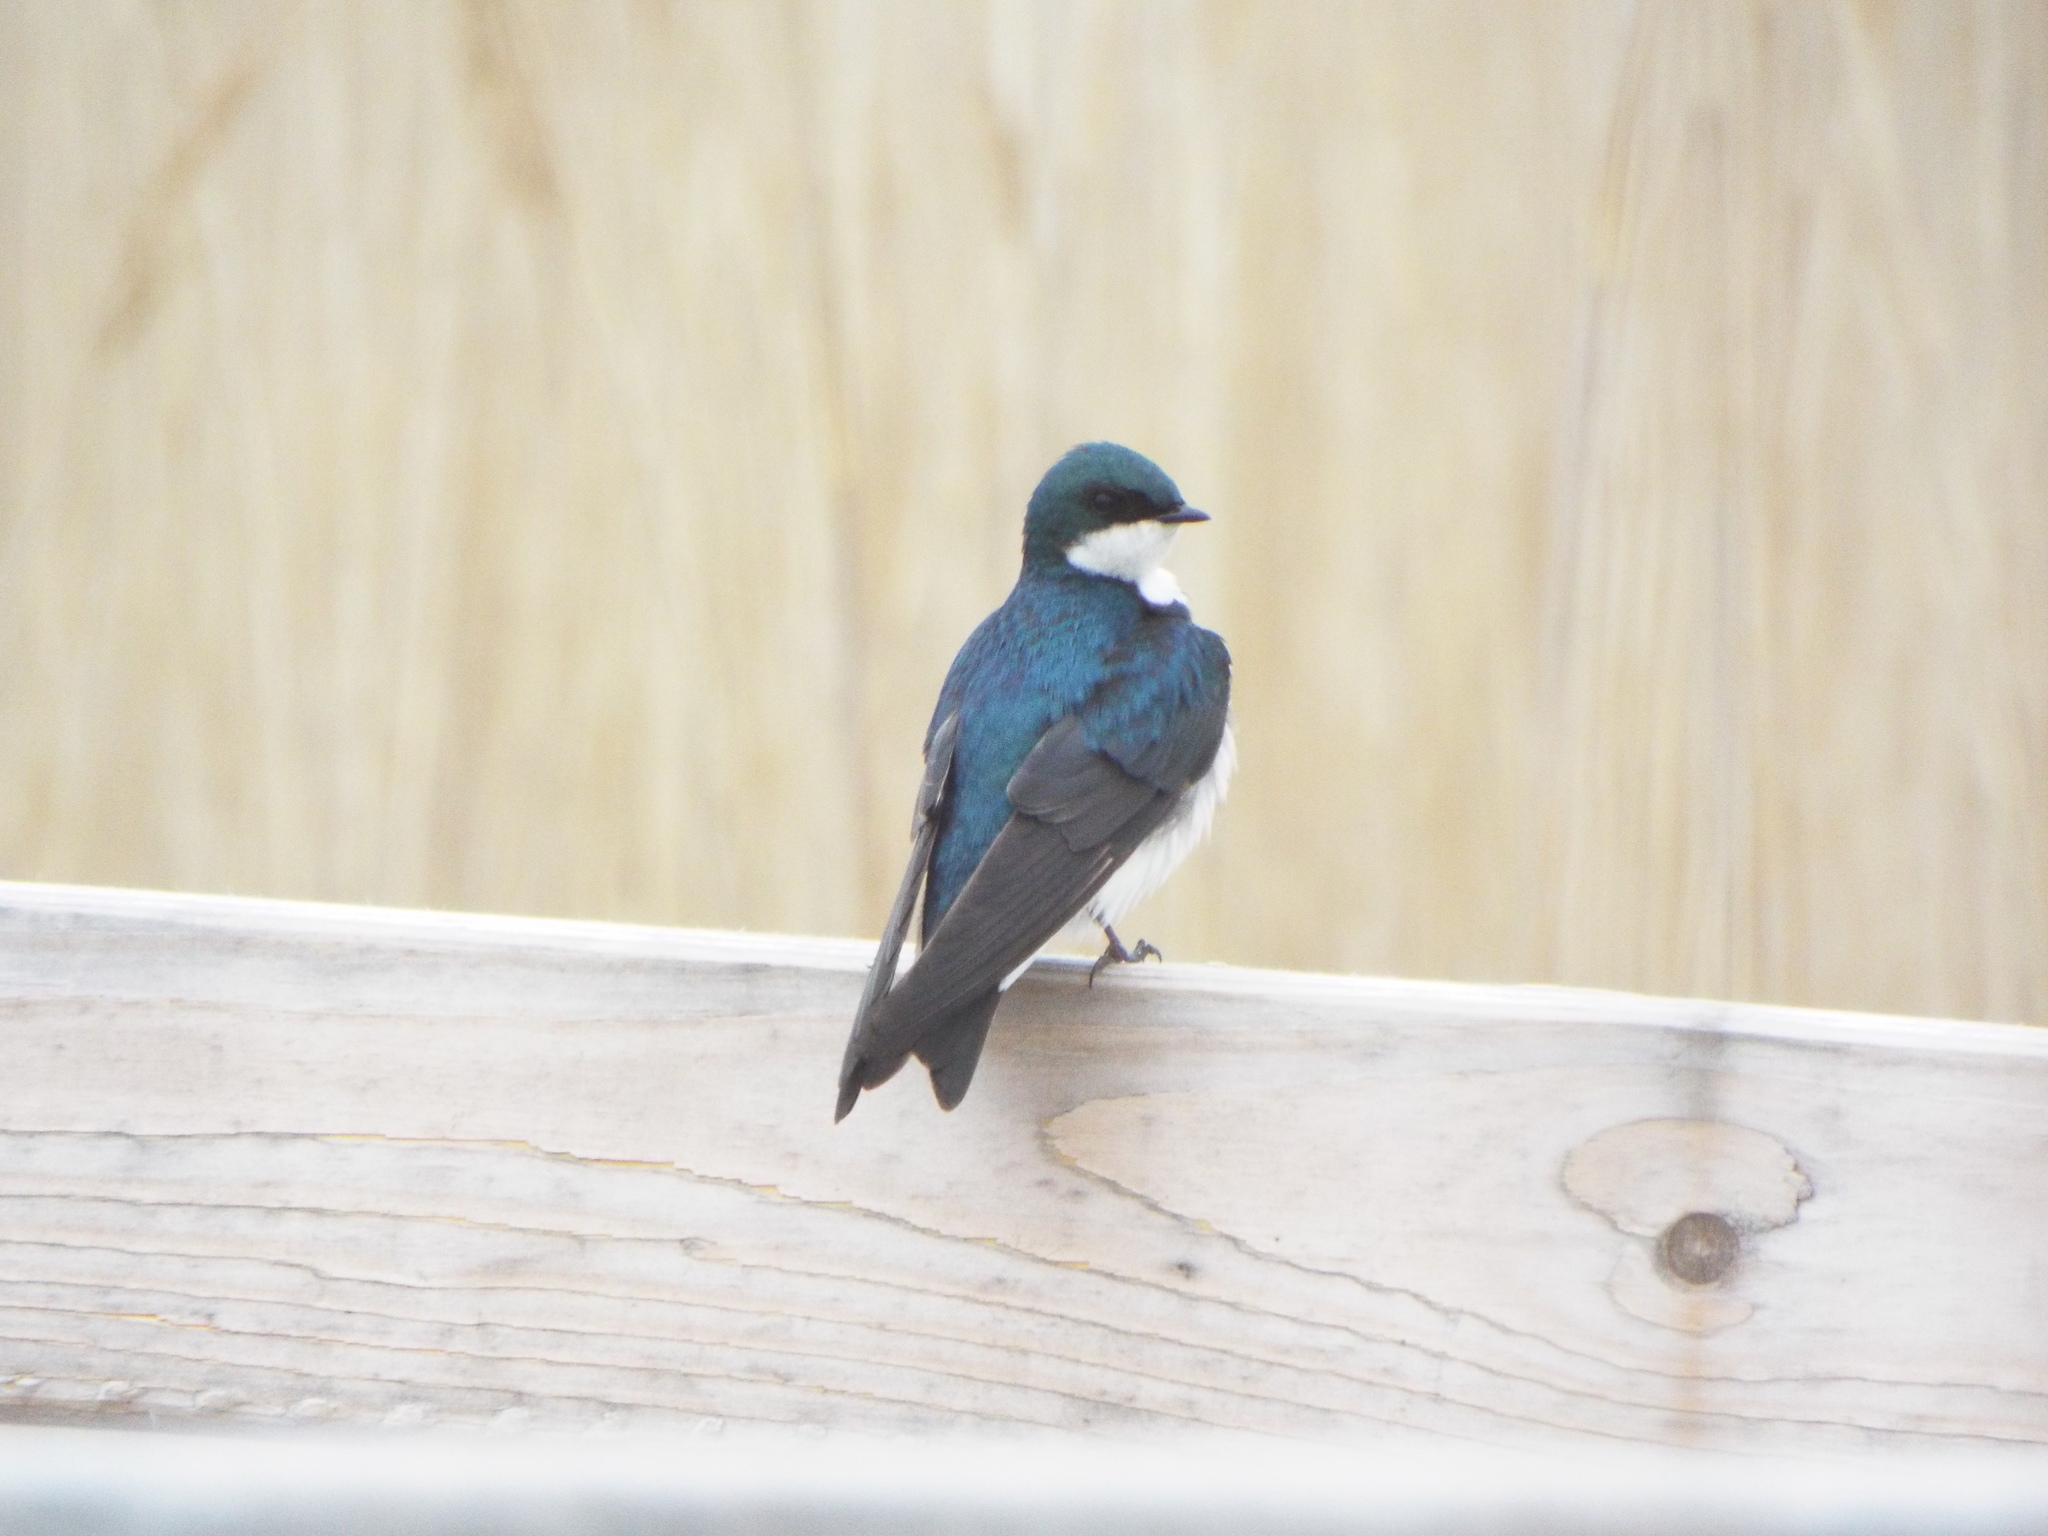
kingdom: Animalia
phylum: Chordata
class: Aves
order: Passeriformes
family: Hirundinidae
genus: Tachycineta
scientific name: Tachycineta bicolor
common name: Tree swallow
